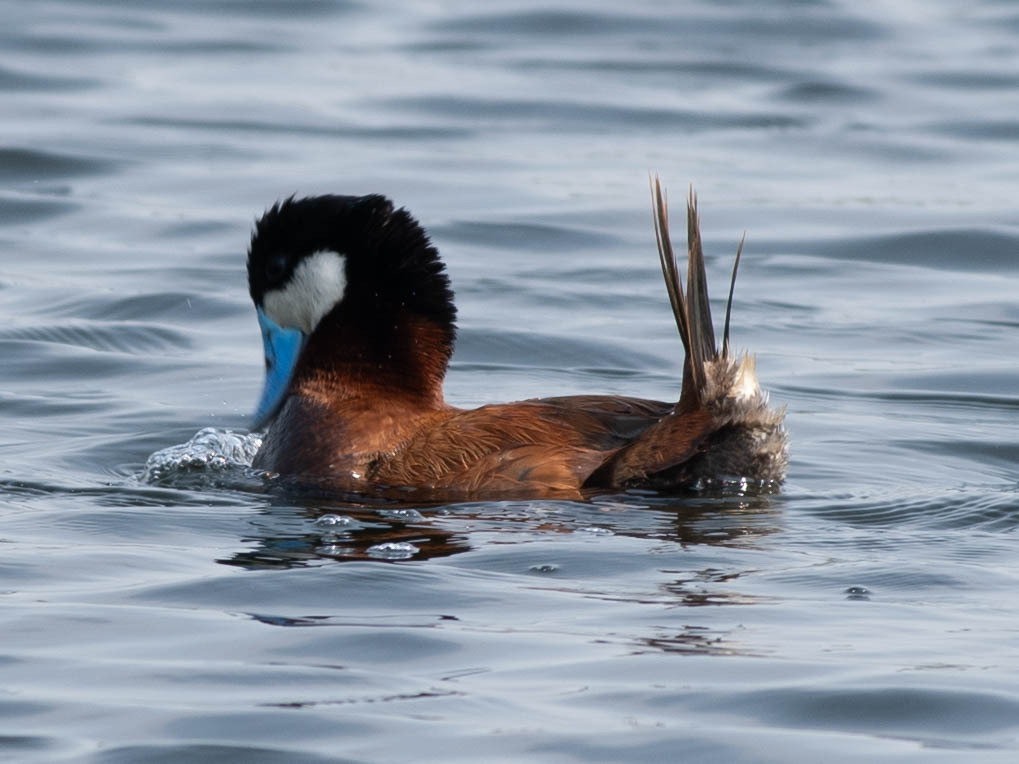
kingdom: Animalia
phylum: Chordata
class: Aves
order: Anseriformes
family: Anatidae
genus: Oxyura
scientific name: Oxyura jamaicensis
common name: Ruddy duck
